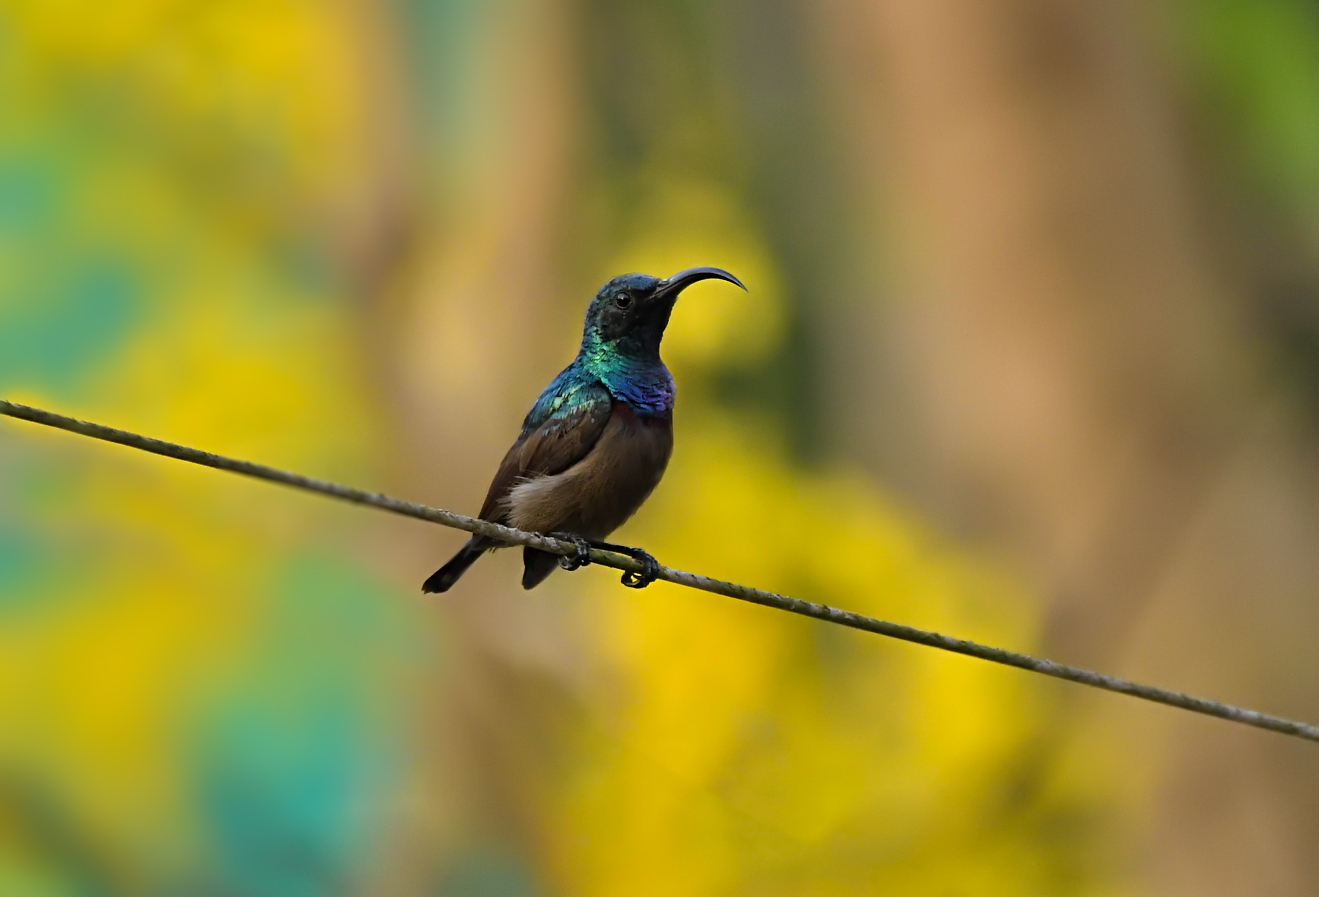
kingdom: Animalia
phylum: Chordata
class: Aves
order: Passeriformes
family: Nectariniidae
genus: Cinnyris
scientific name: Cinnyris lotenius
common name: Loten's sunbird
